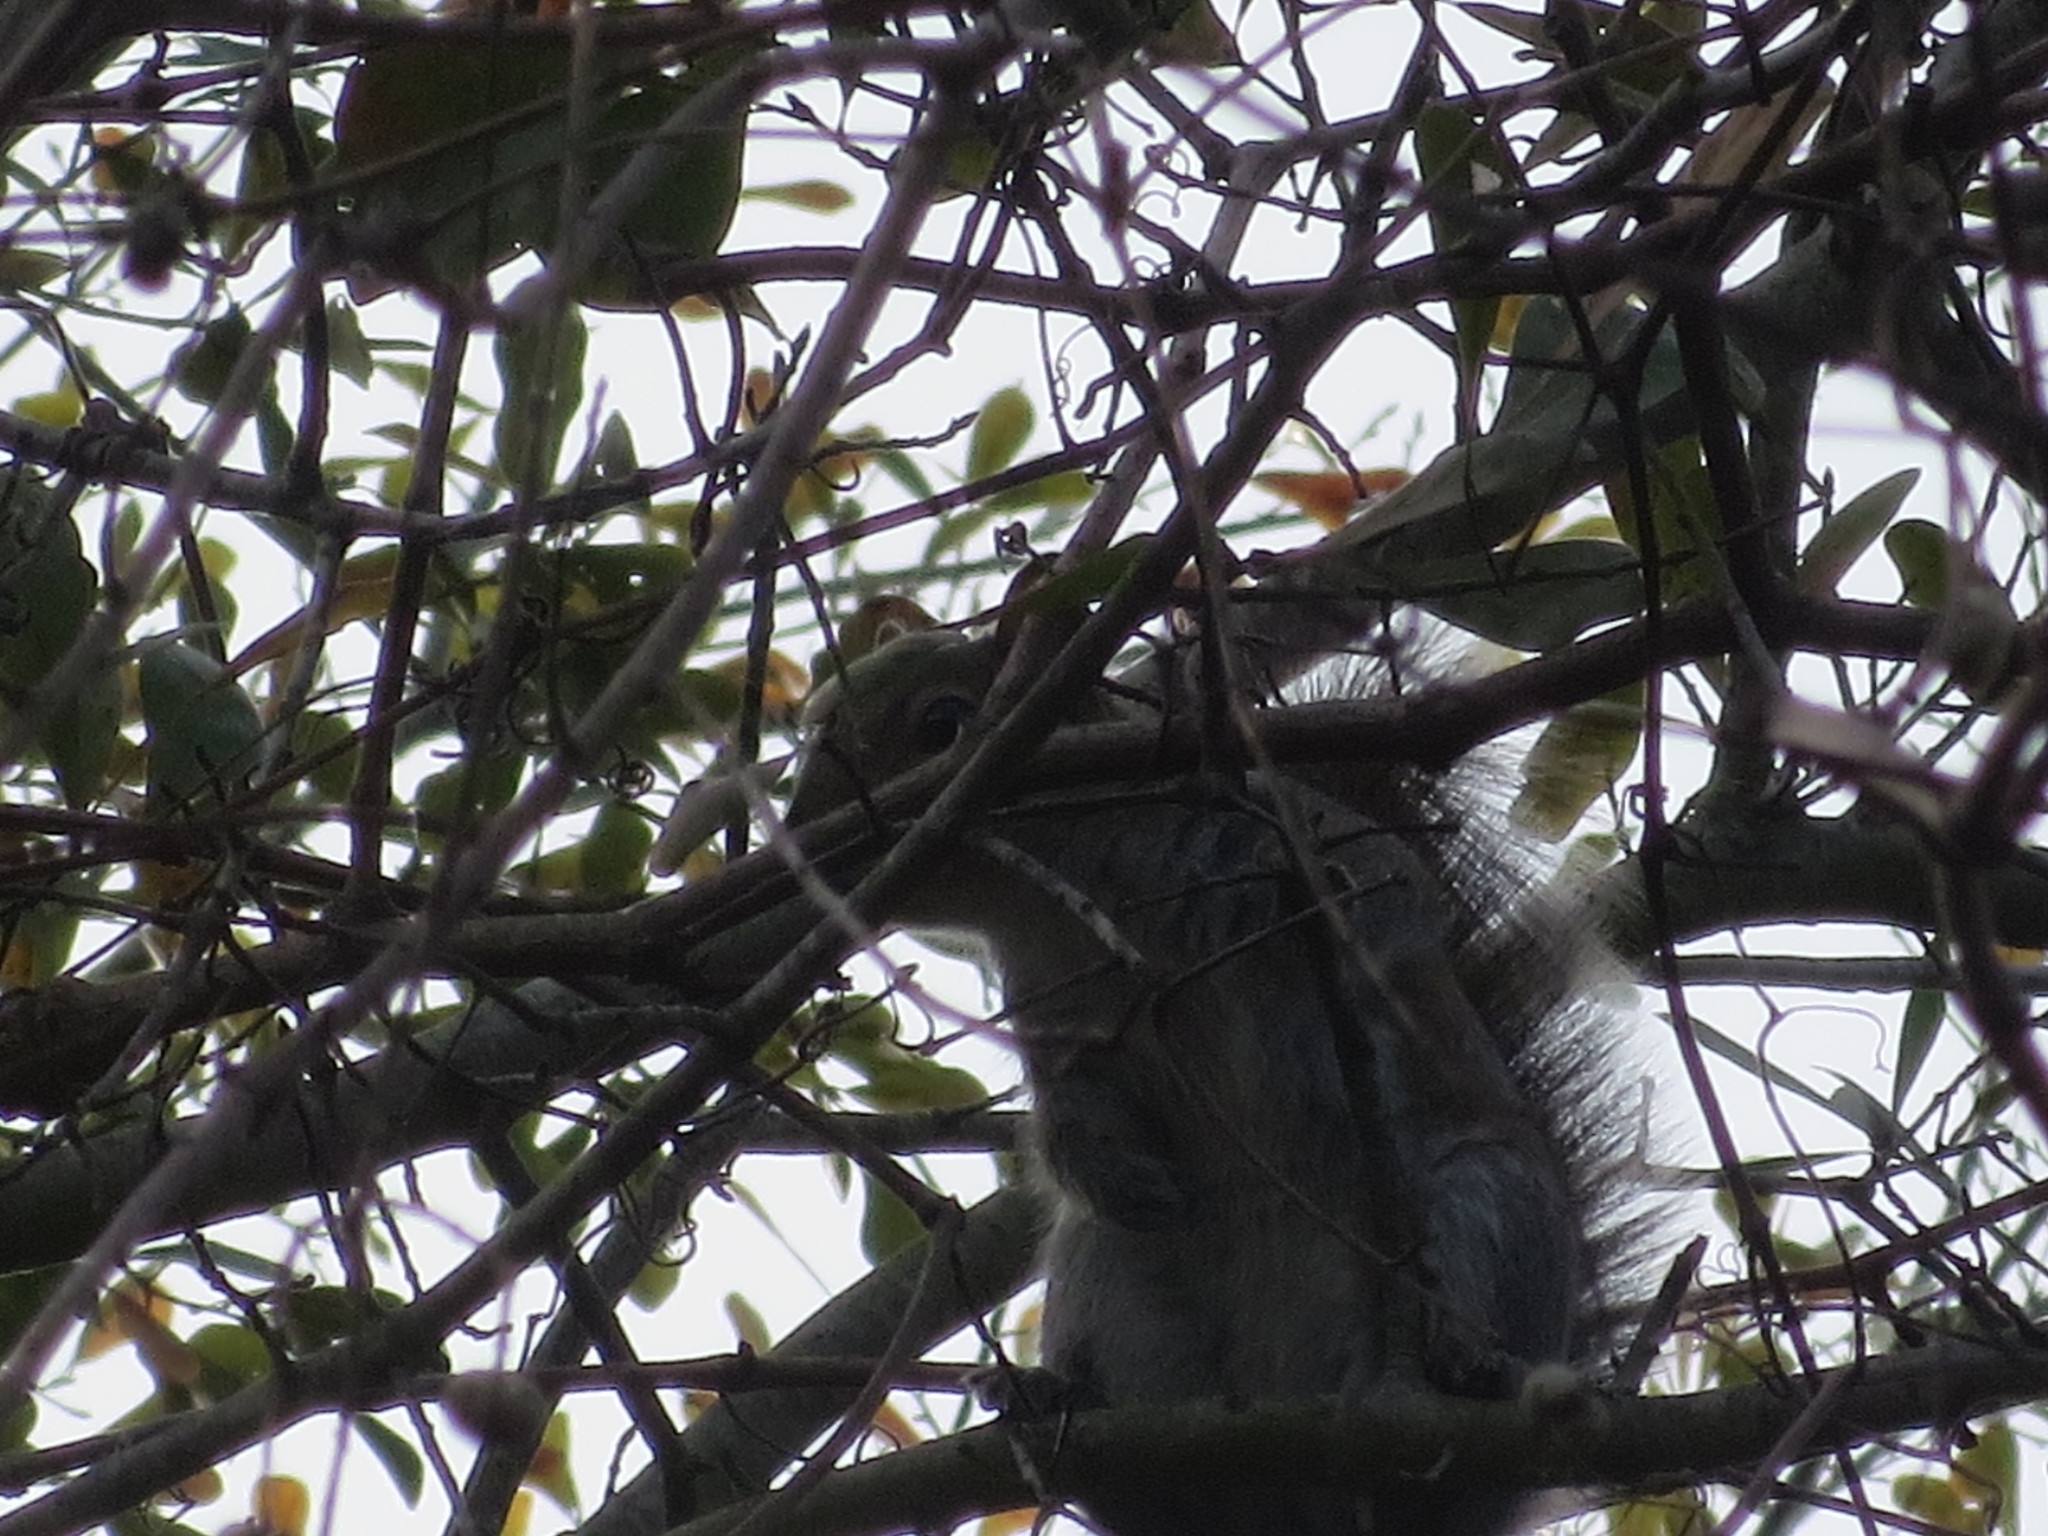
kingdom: Animalia
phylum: Chordata
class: Mammalia
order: Rodentia
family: Sciuridae
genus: Sciurus
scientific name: Sciurus carolinensis
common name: Eastern gray squirrel
